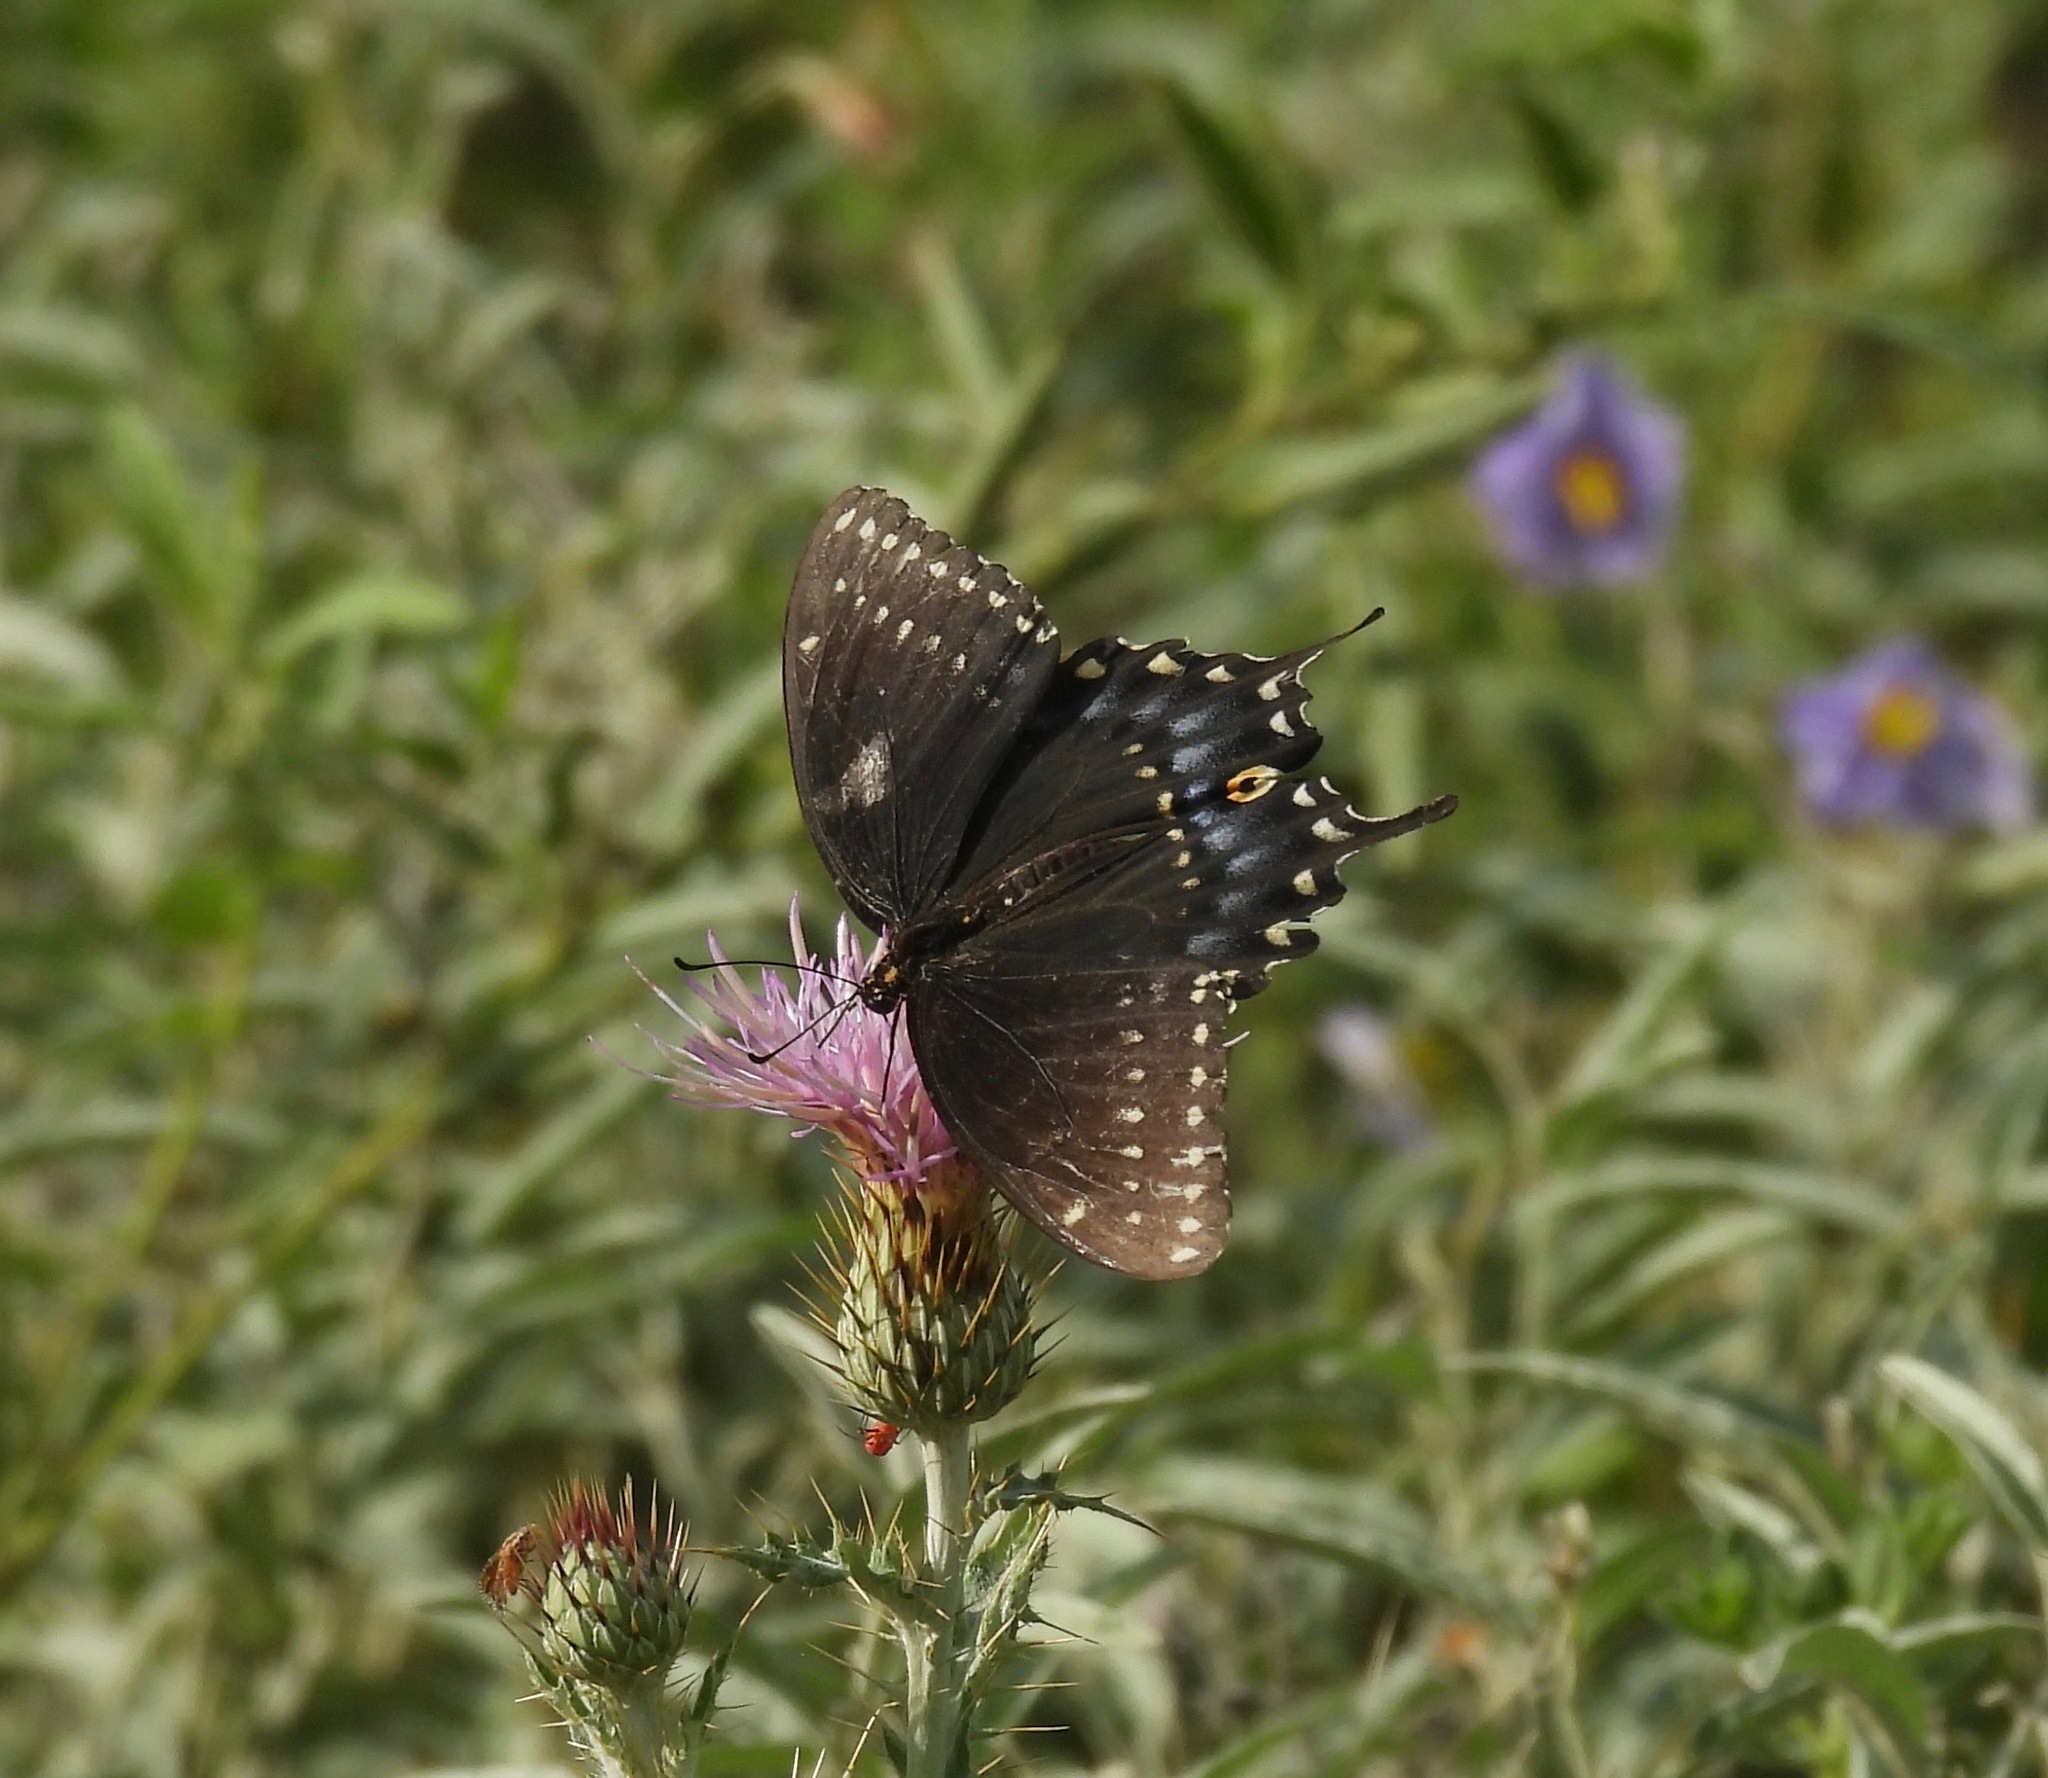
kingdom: Animalia
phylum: Arthropoda
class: Insecta
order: Lepidoptera
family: Papilionidae
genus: Papilio
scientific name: Papilio polyxenes
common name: Black swallowtail
